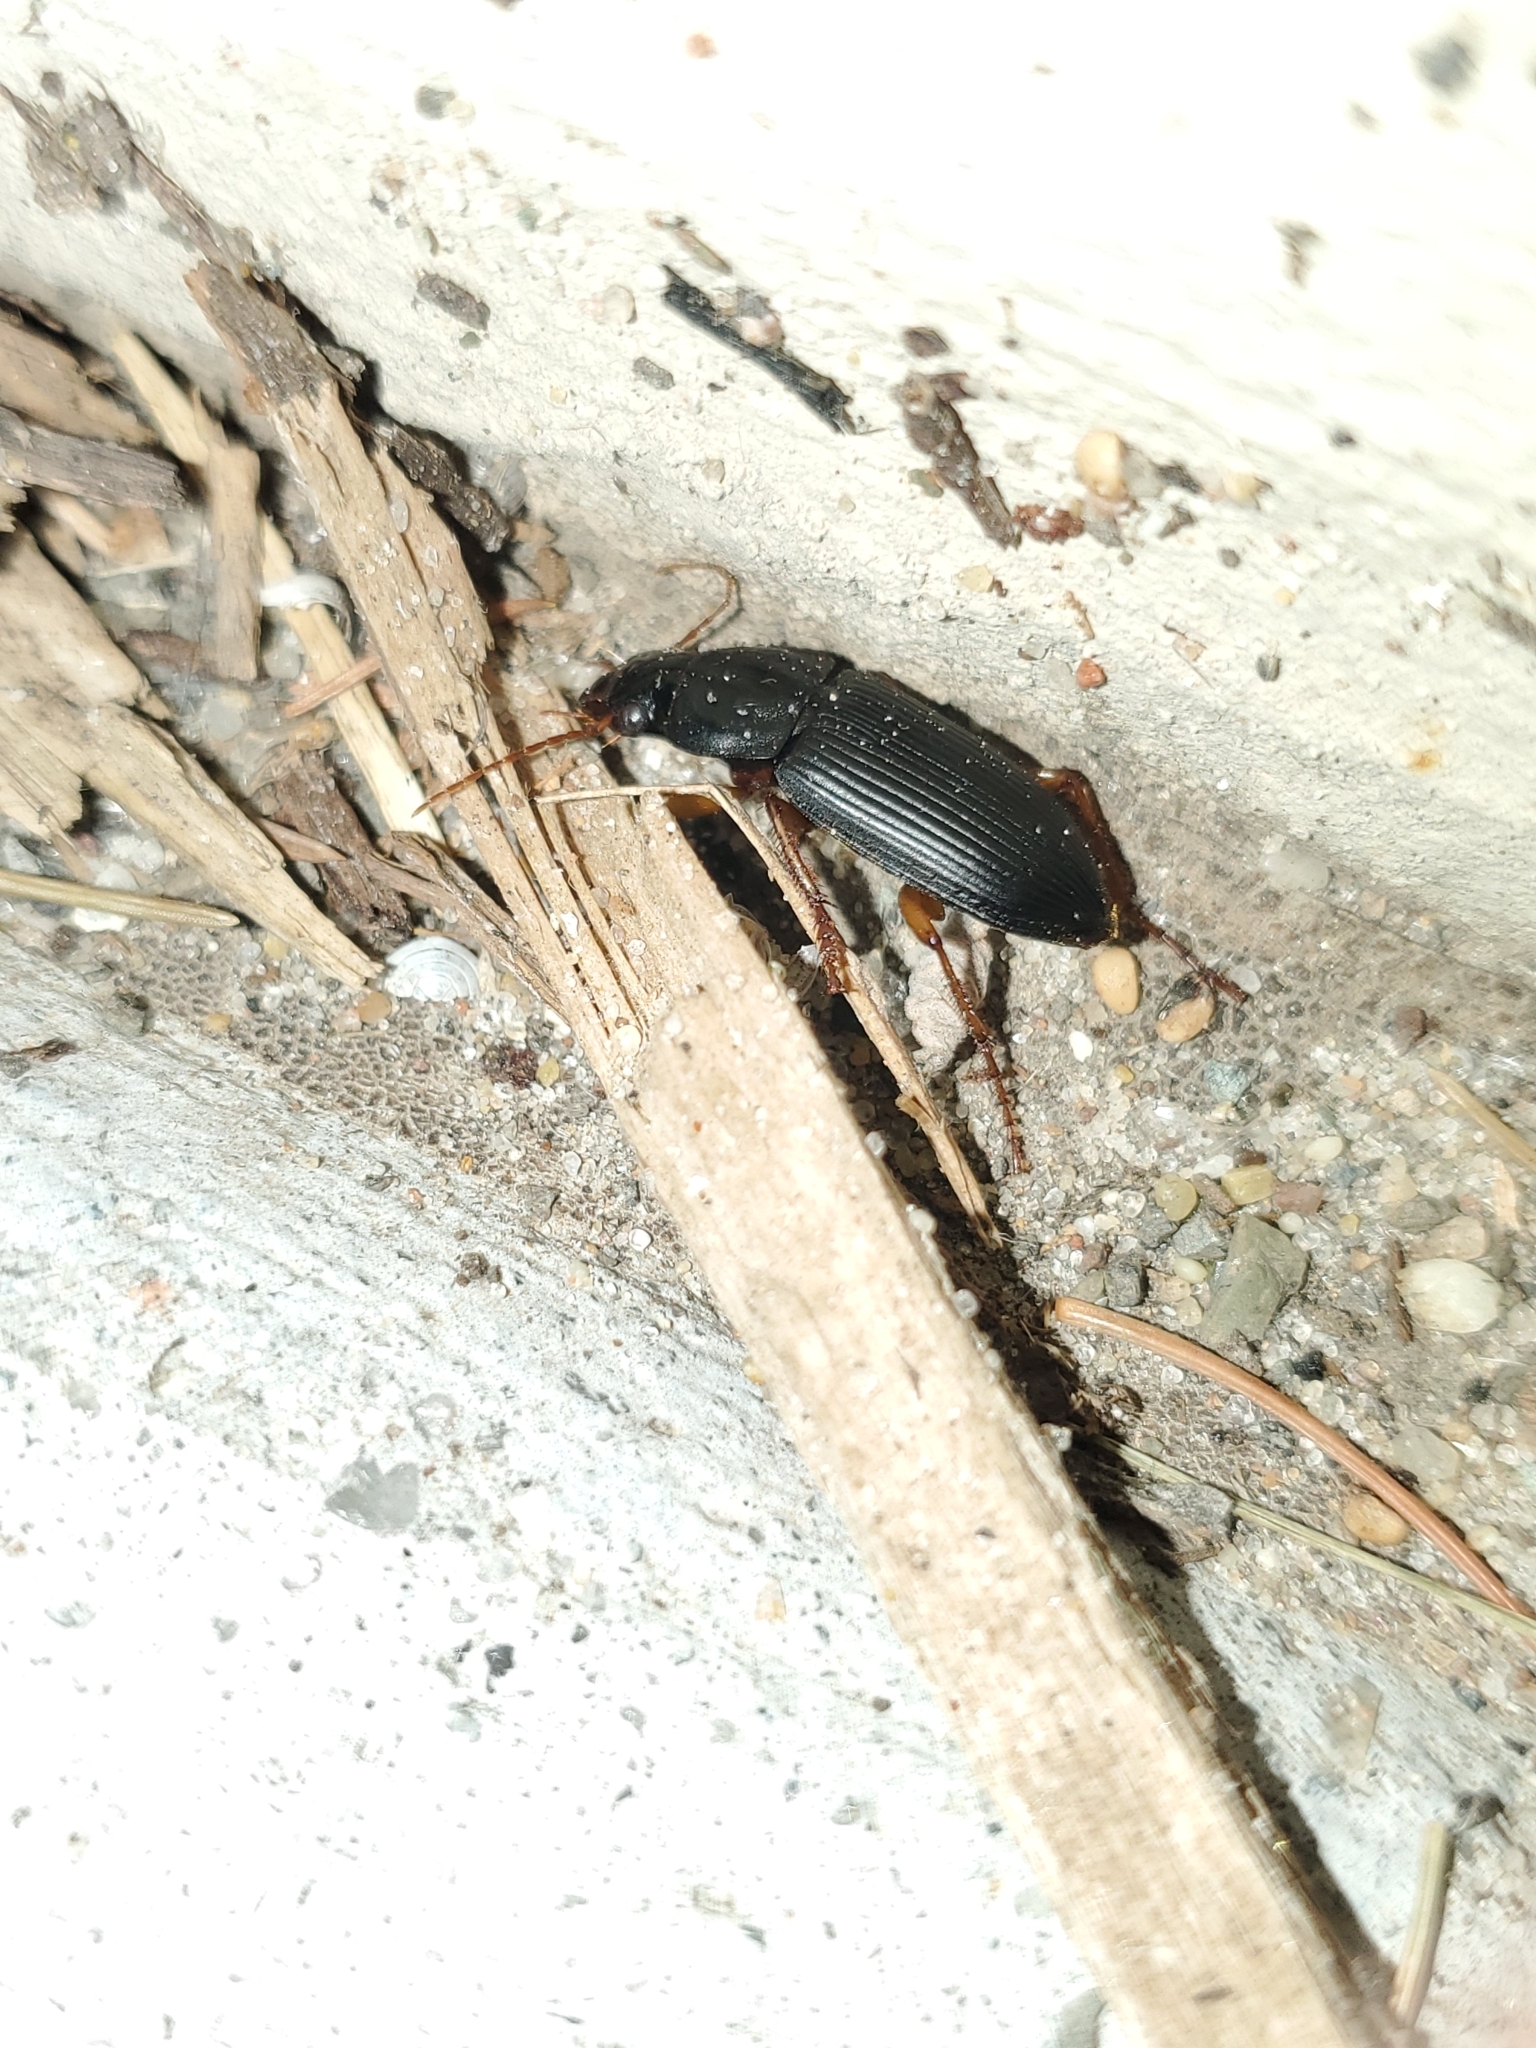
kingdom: Animalia
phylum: Arthropoda
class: Insecta
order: Coleoptera
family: Carabidae
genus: Harpalus
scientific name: Harpalus pensylvanicus
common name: Pennsylvania dingy ground beetle
